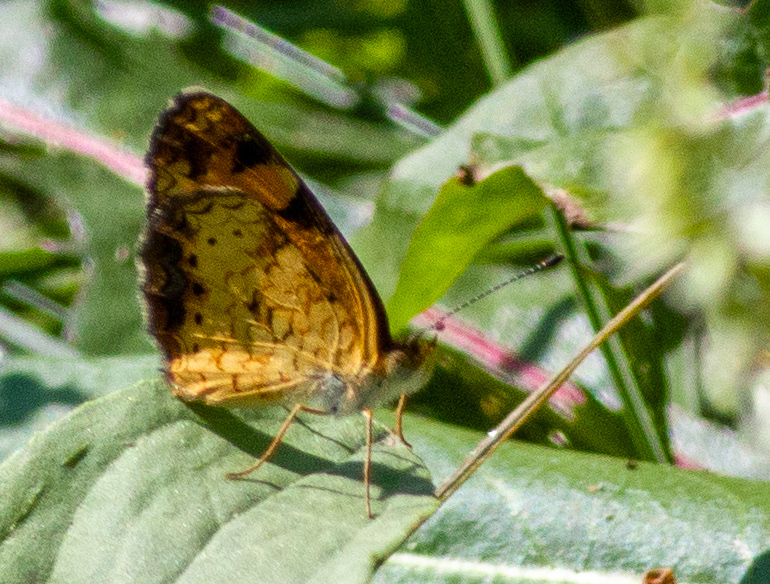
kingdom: Animalia
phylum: Arthropoda
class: Insecta
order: Lepidoptera
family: Nymphalidae
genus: Phyciodes
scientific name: Phyciodes tharos
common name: Pearl crescent
